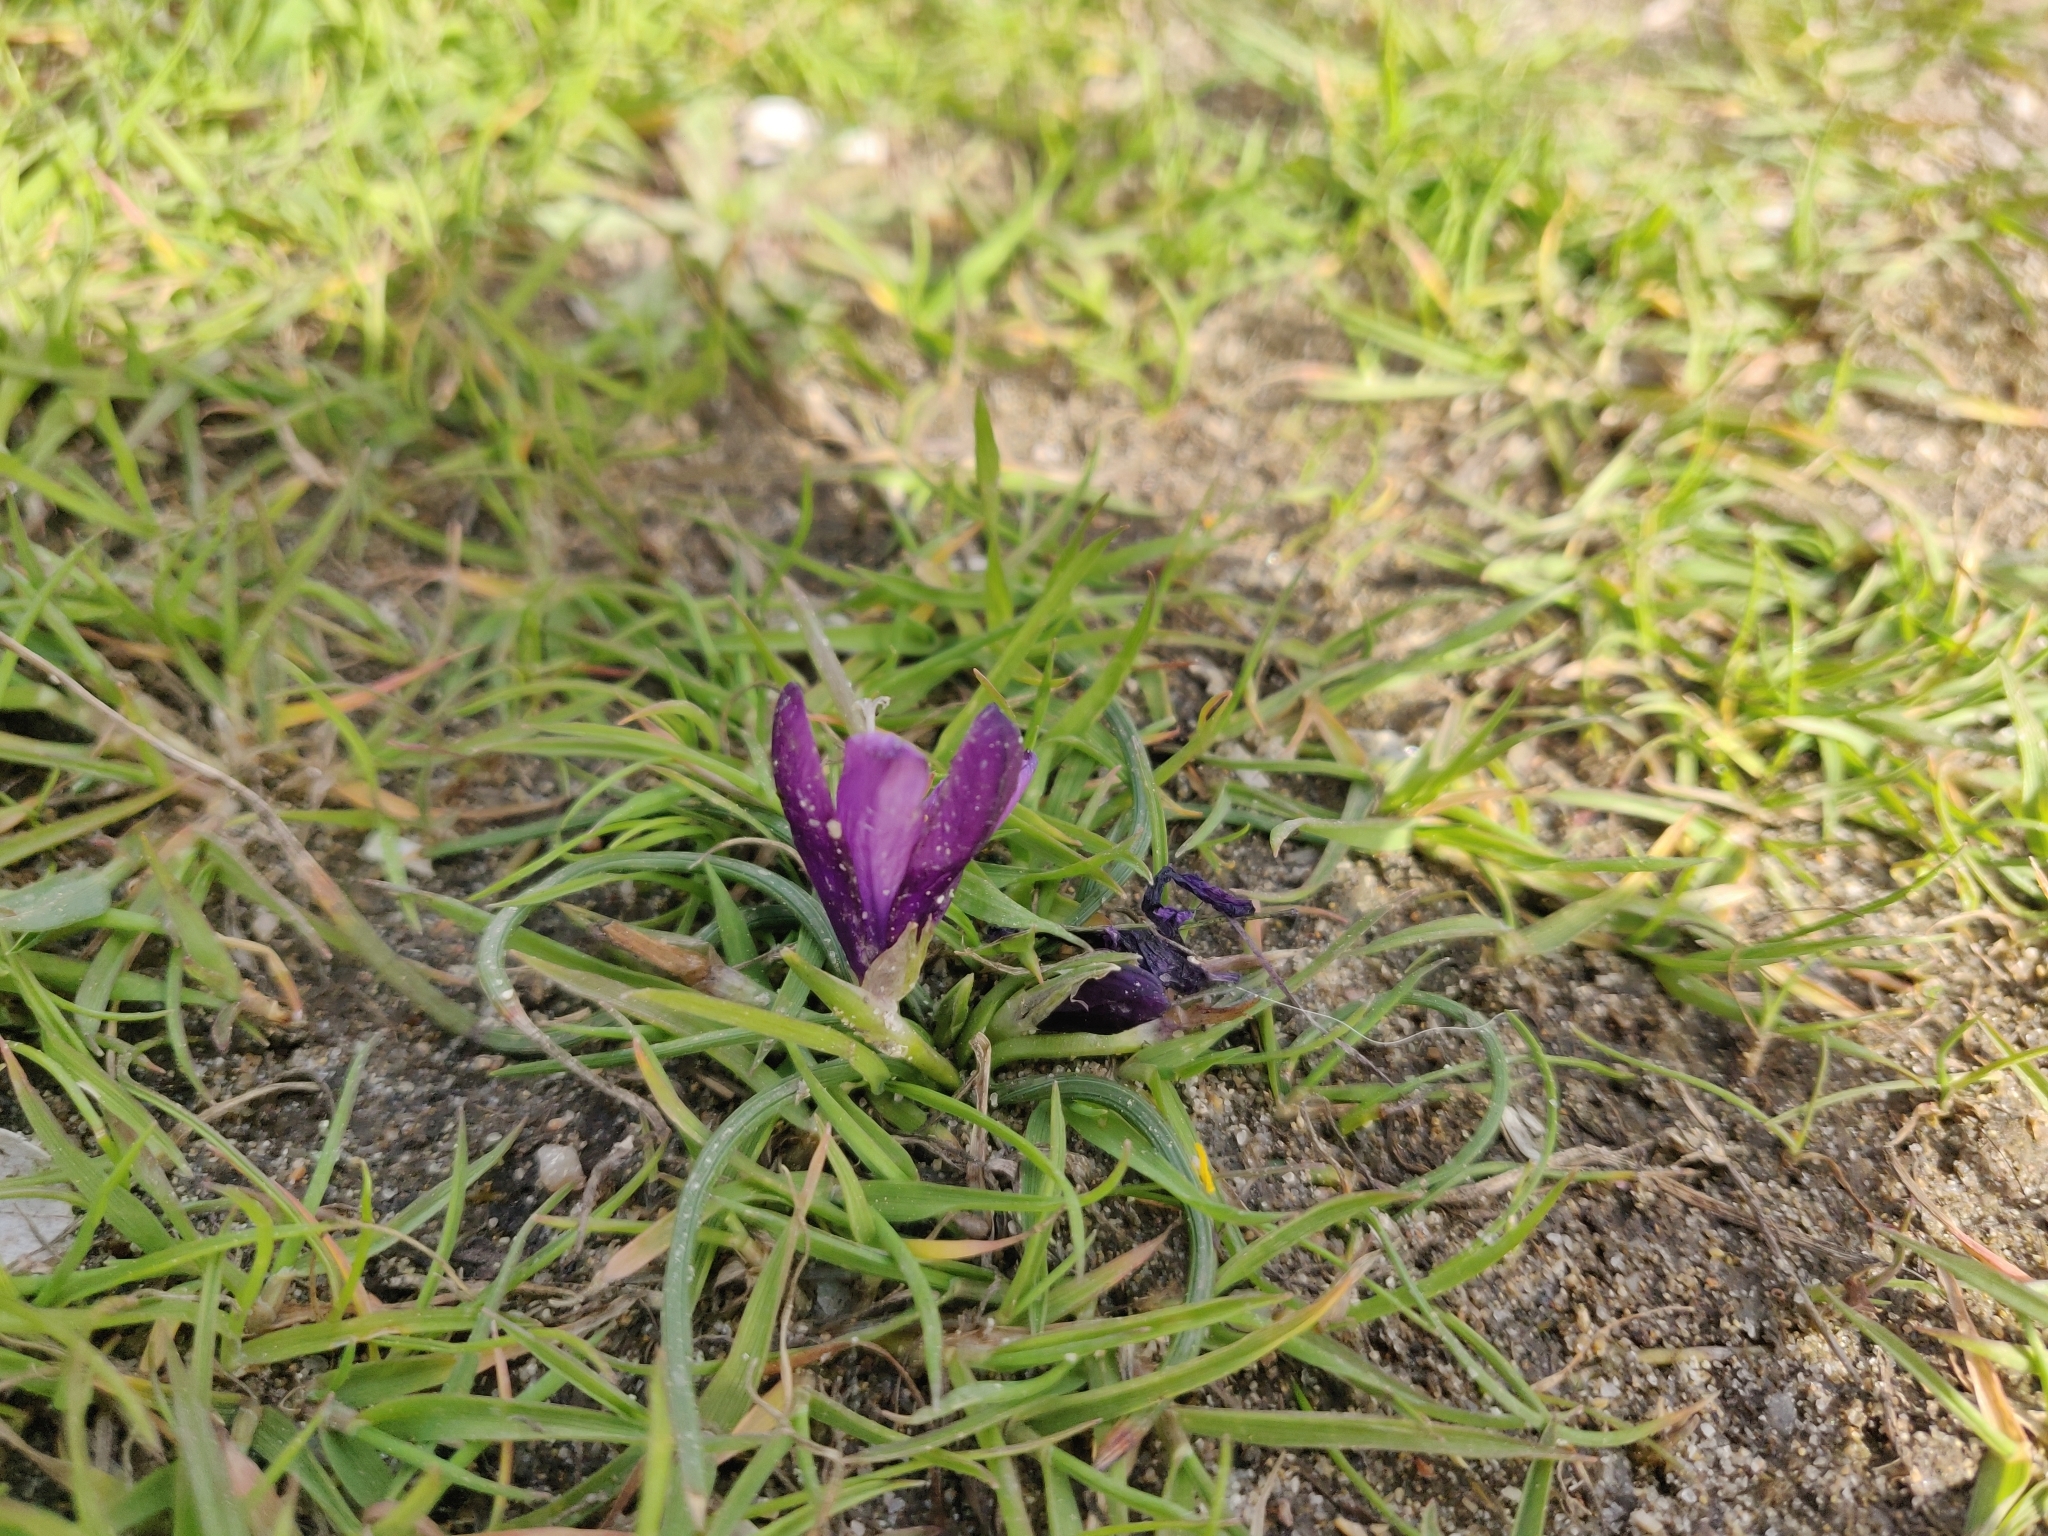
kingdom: Plantae
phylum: Tracheophyta
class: Liliopsida
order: Asparagales
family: Iridaceae
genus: Romulea
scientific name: Romulea requienii
